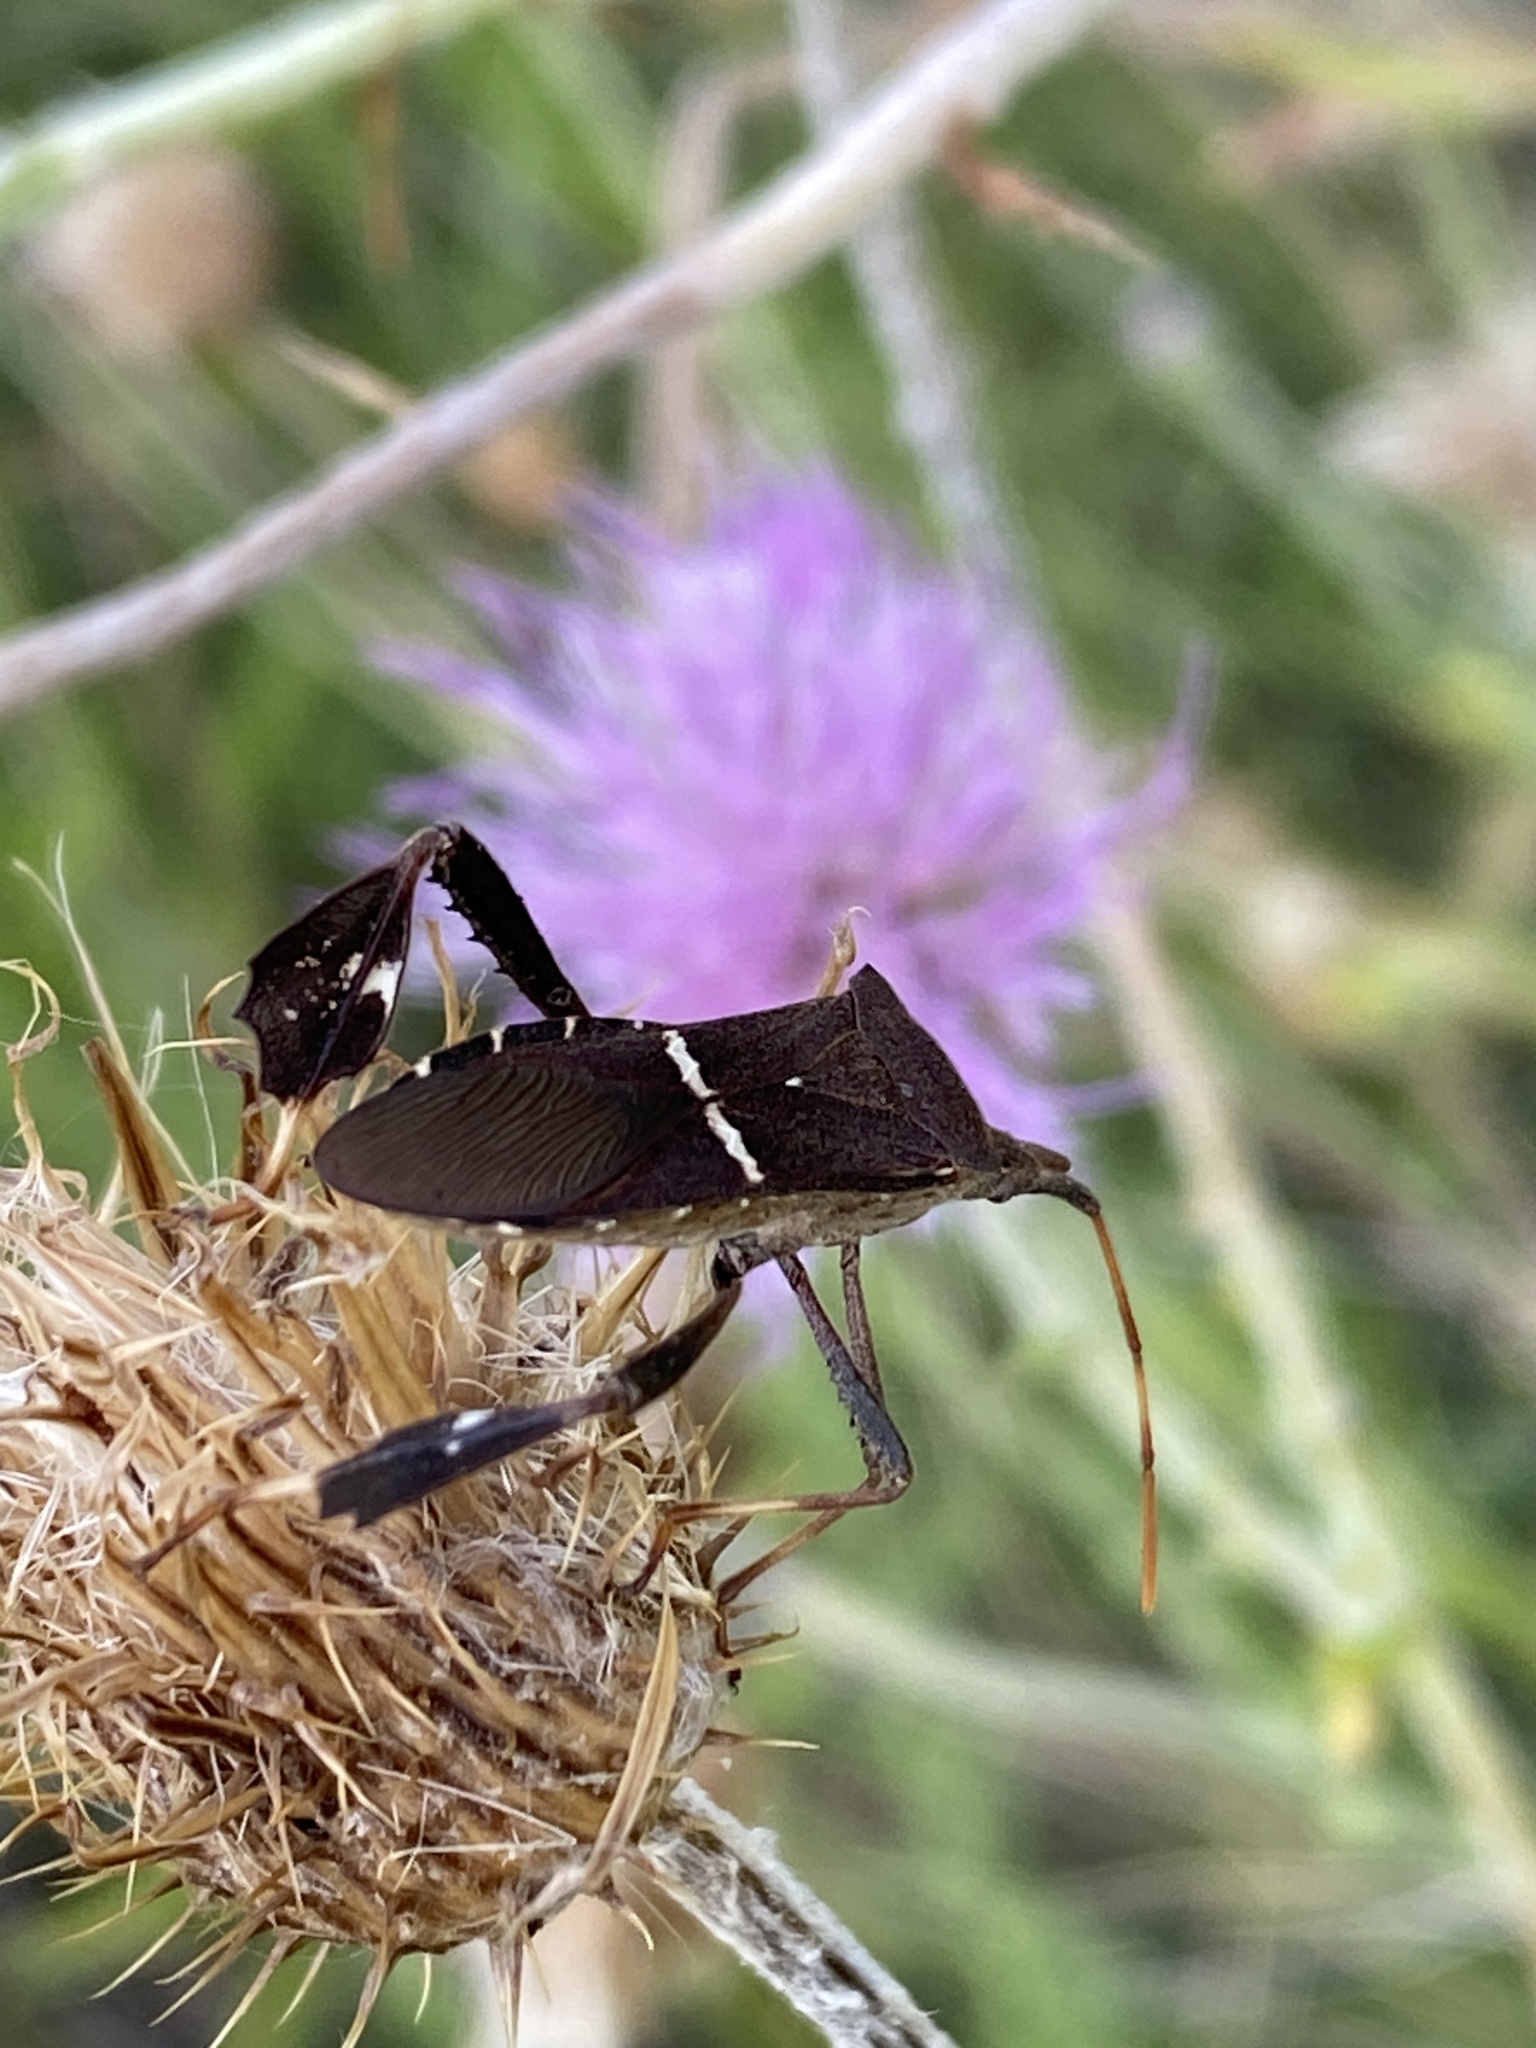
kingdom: Animalia
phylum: Arthropoda
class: Insecta
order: Hemiptera
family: Coreidae
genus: Leptoglossus
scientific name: Leptoglossus phyllopus
